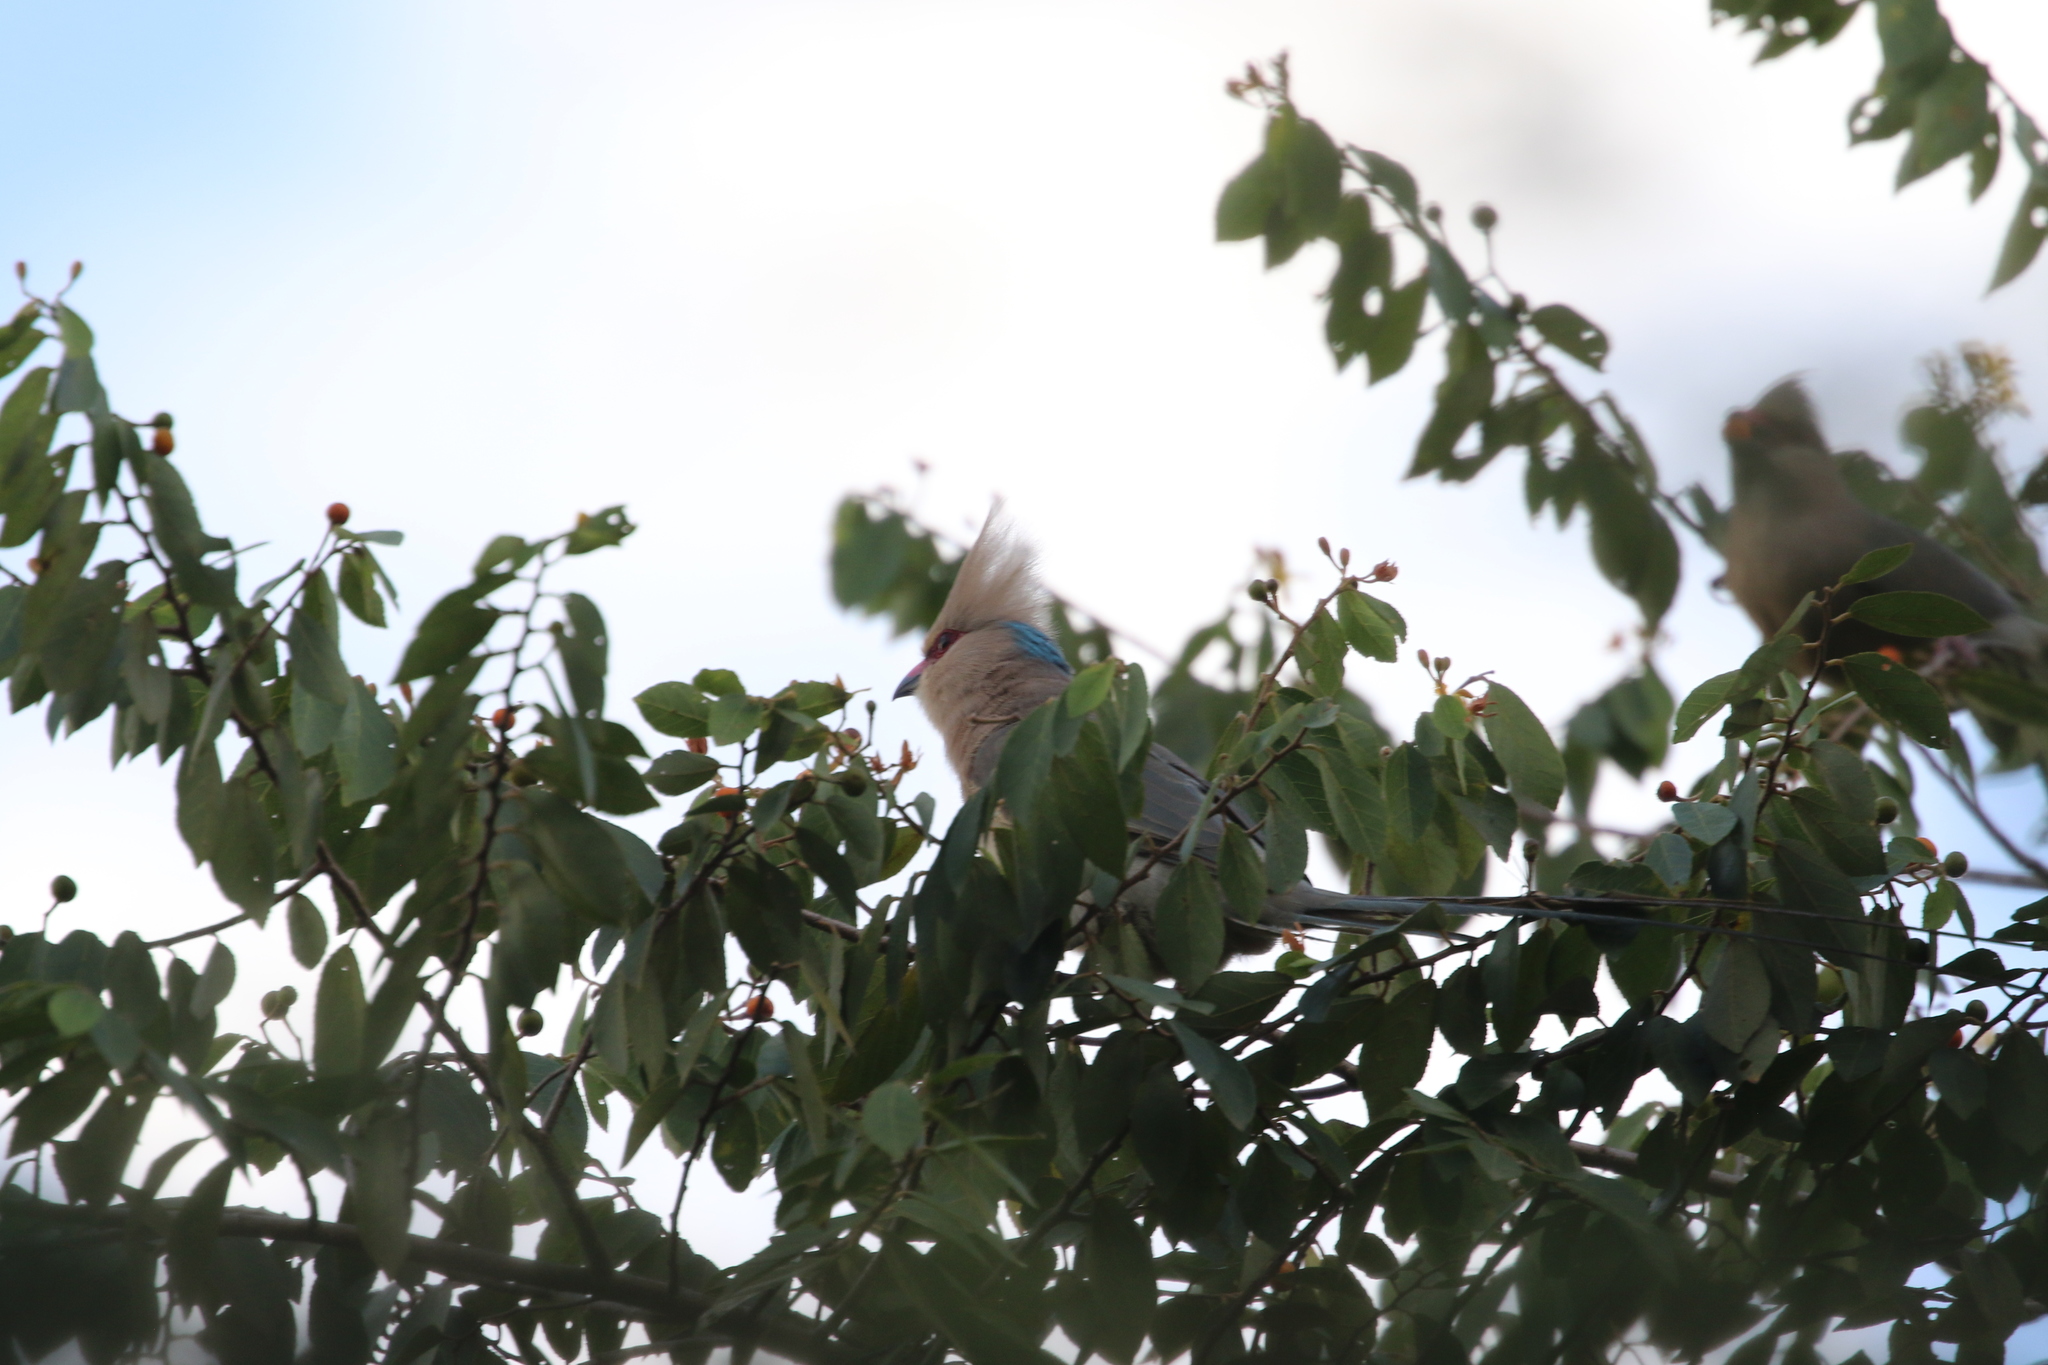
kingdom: Animalia
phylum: Chordata
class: Aves
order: Coliiformes
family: Coliidae
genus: Urocolius
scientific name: Urocolius macrourus
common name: Blue-naped mousebird
